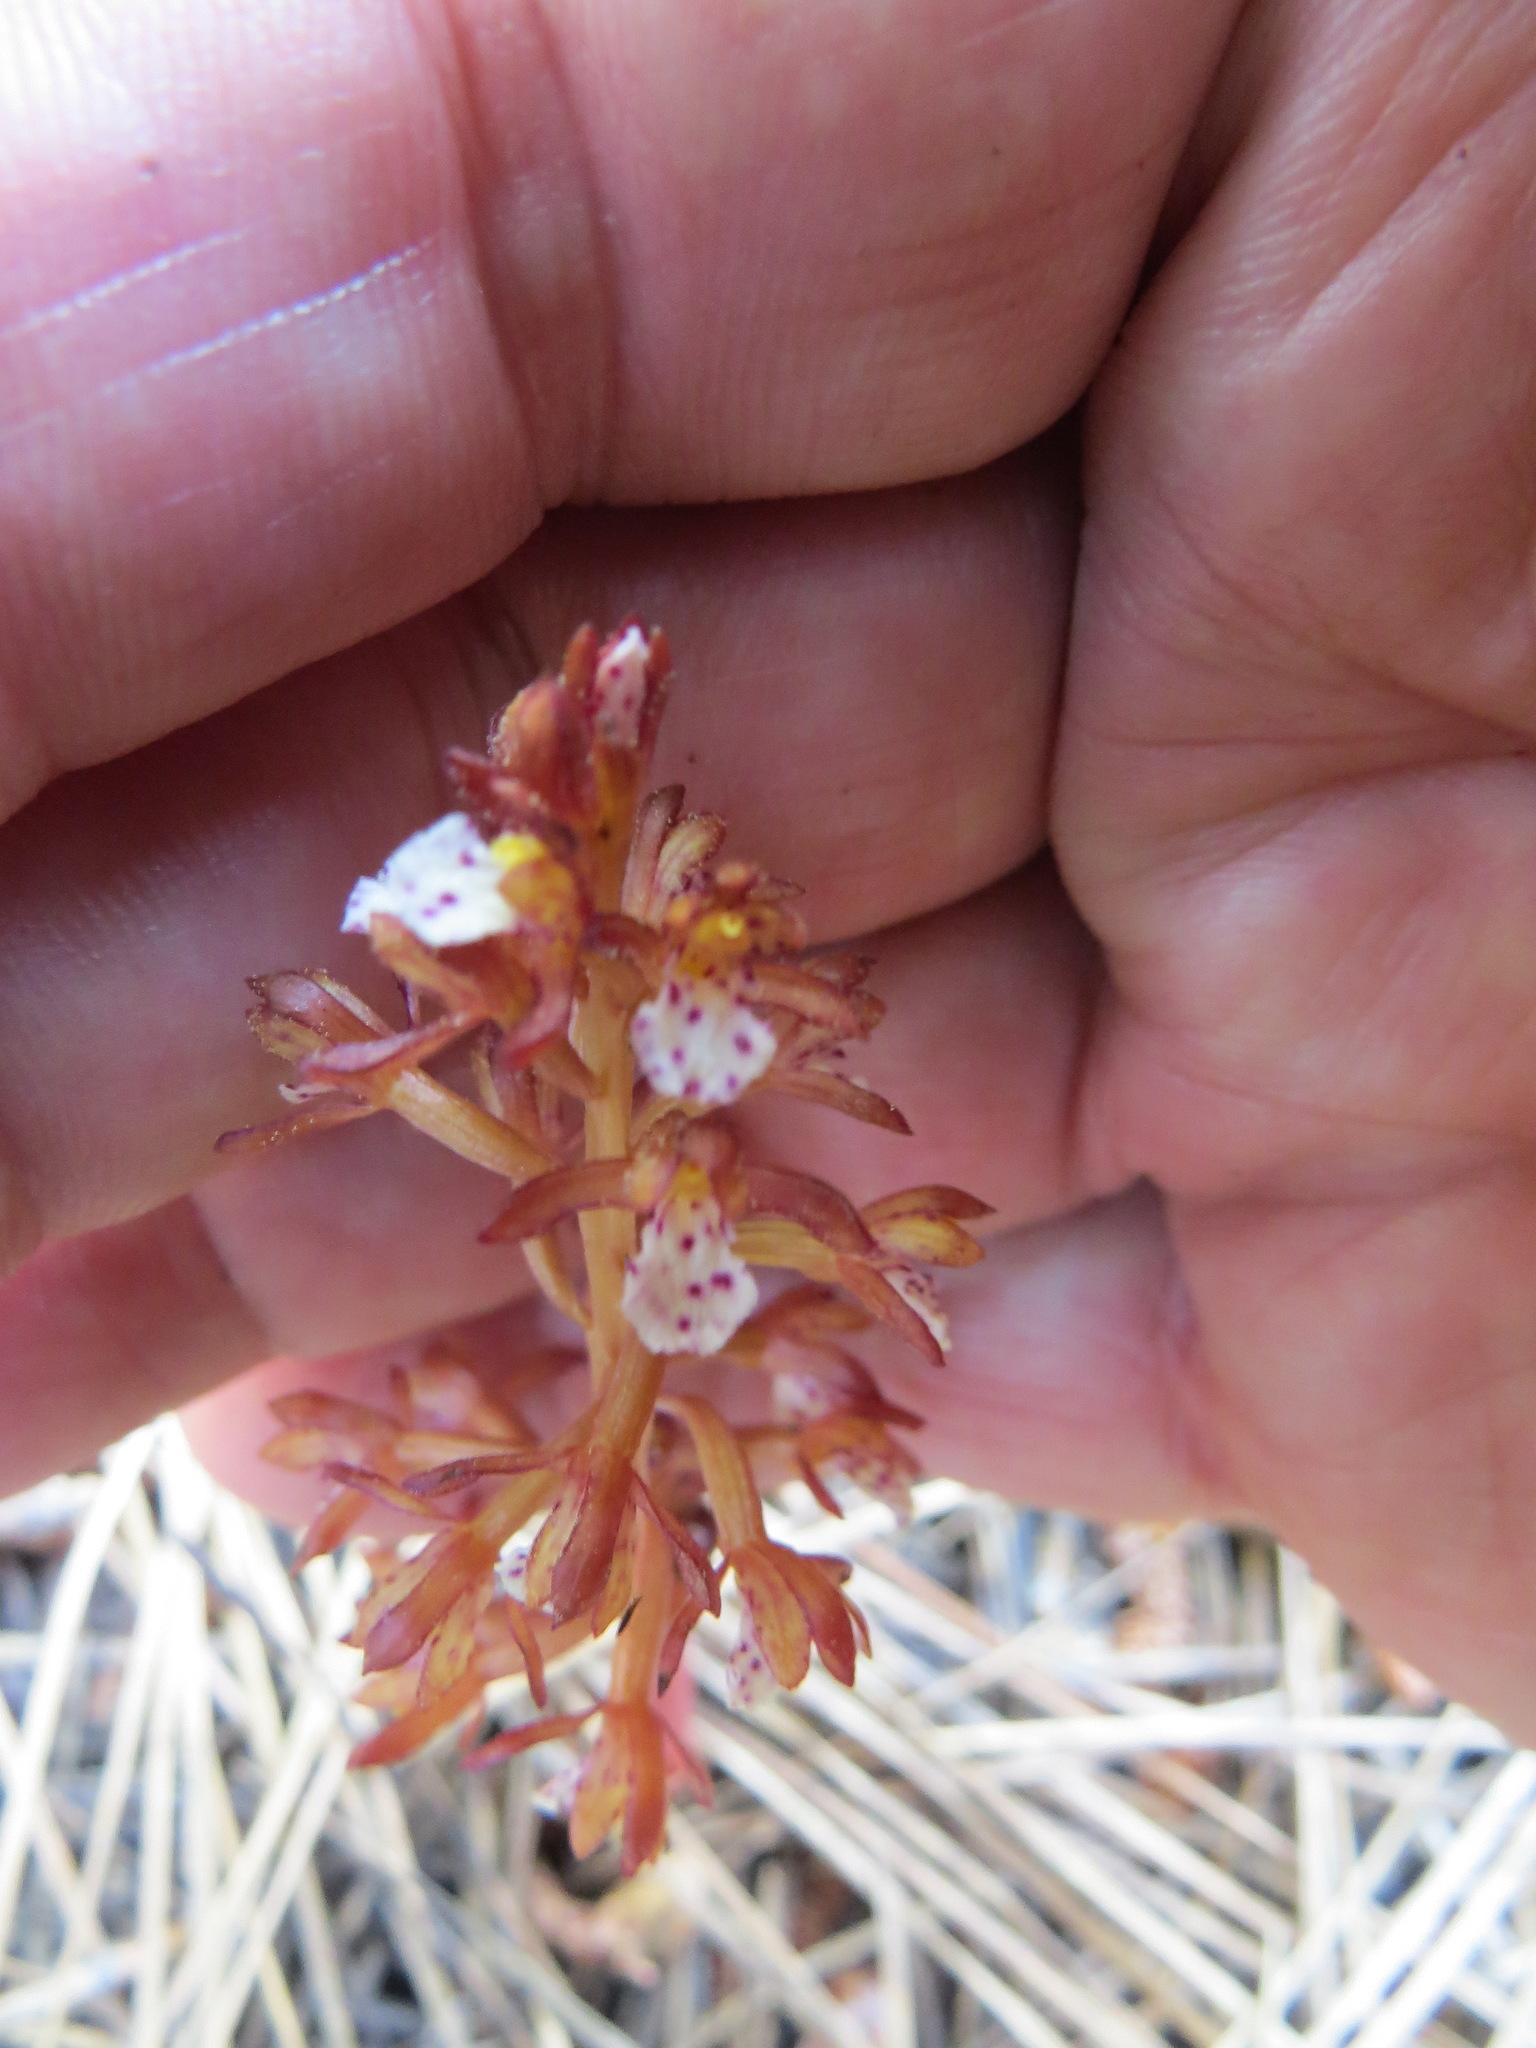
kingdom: Plantae
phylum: Tracheophyta
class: Liliopsida
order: Asparagales
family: Orchidaceae
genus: Corallorhiza
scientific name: Corallorhiza maculata
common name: Spotted coralroot
